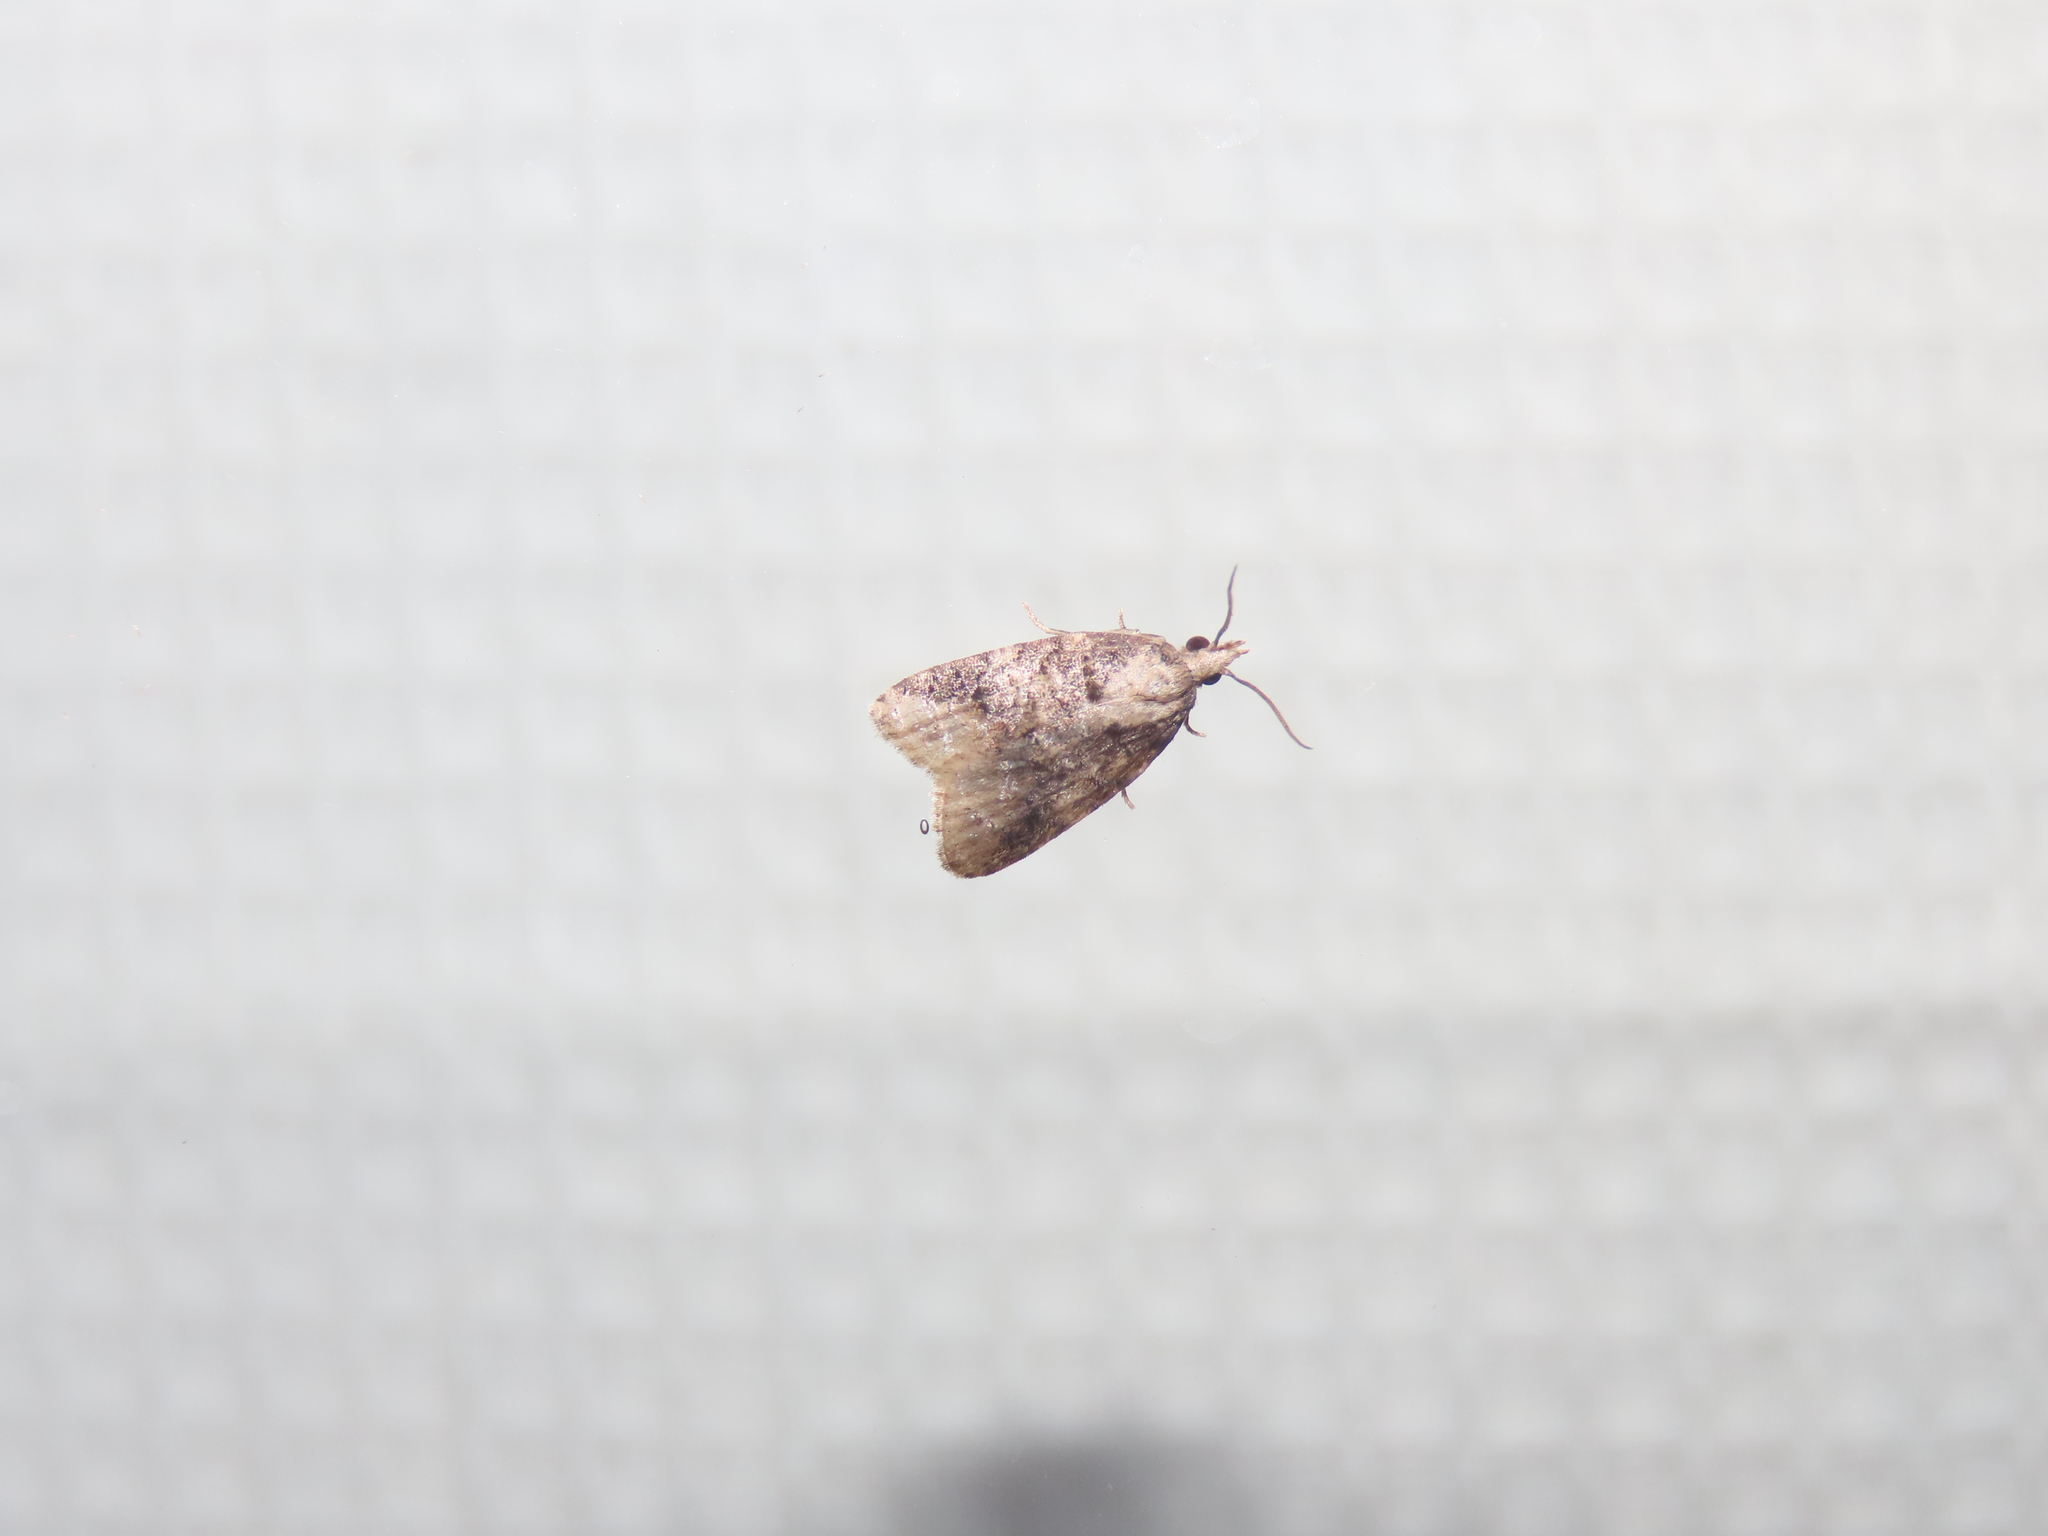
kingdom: Animalia
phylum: Arthropoda
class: Insecta
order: Lepidoptera
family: Tortricidae
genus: Platynota
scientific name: Platynota exasperatana
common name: Exasperating platynota moth
